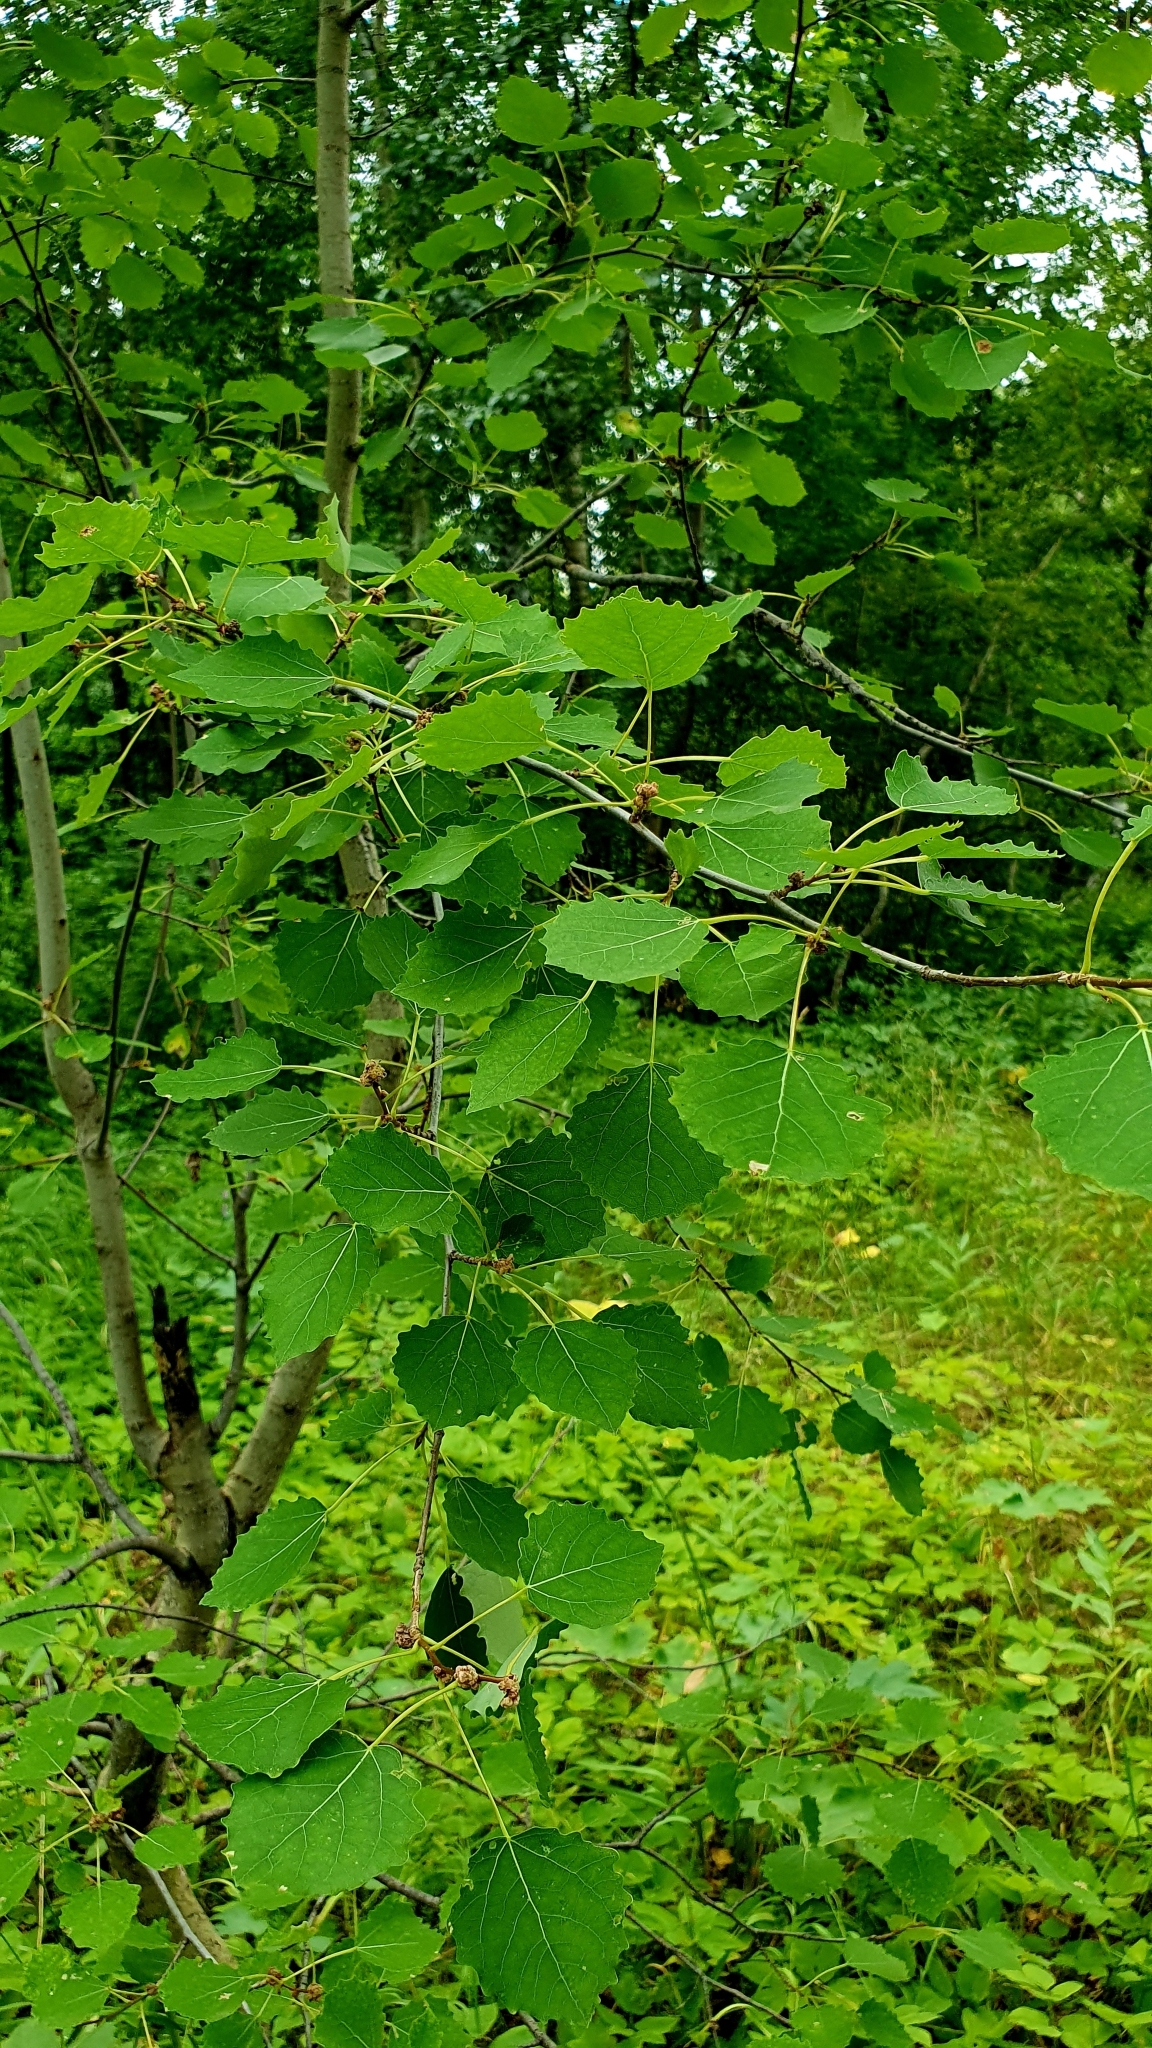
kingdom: Plantae
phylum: Tracheophyta
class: Magnoliopsida
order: Malpighiales
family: Salicaceae
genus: Populus
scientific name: Populus tremula
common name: European aspen
